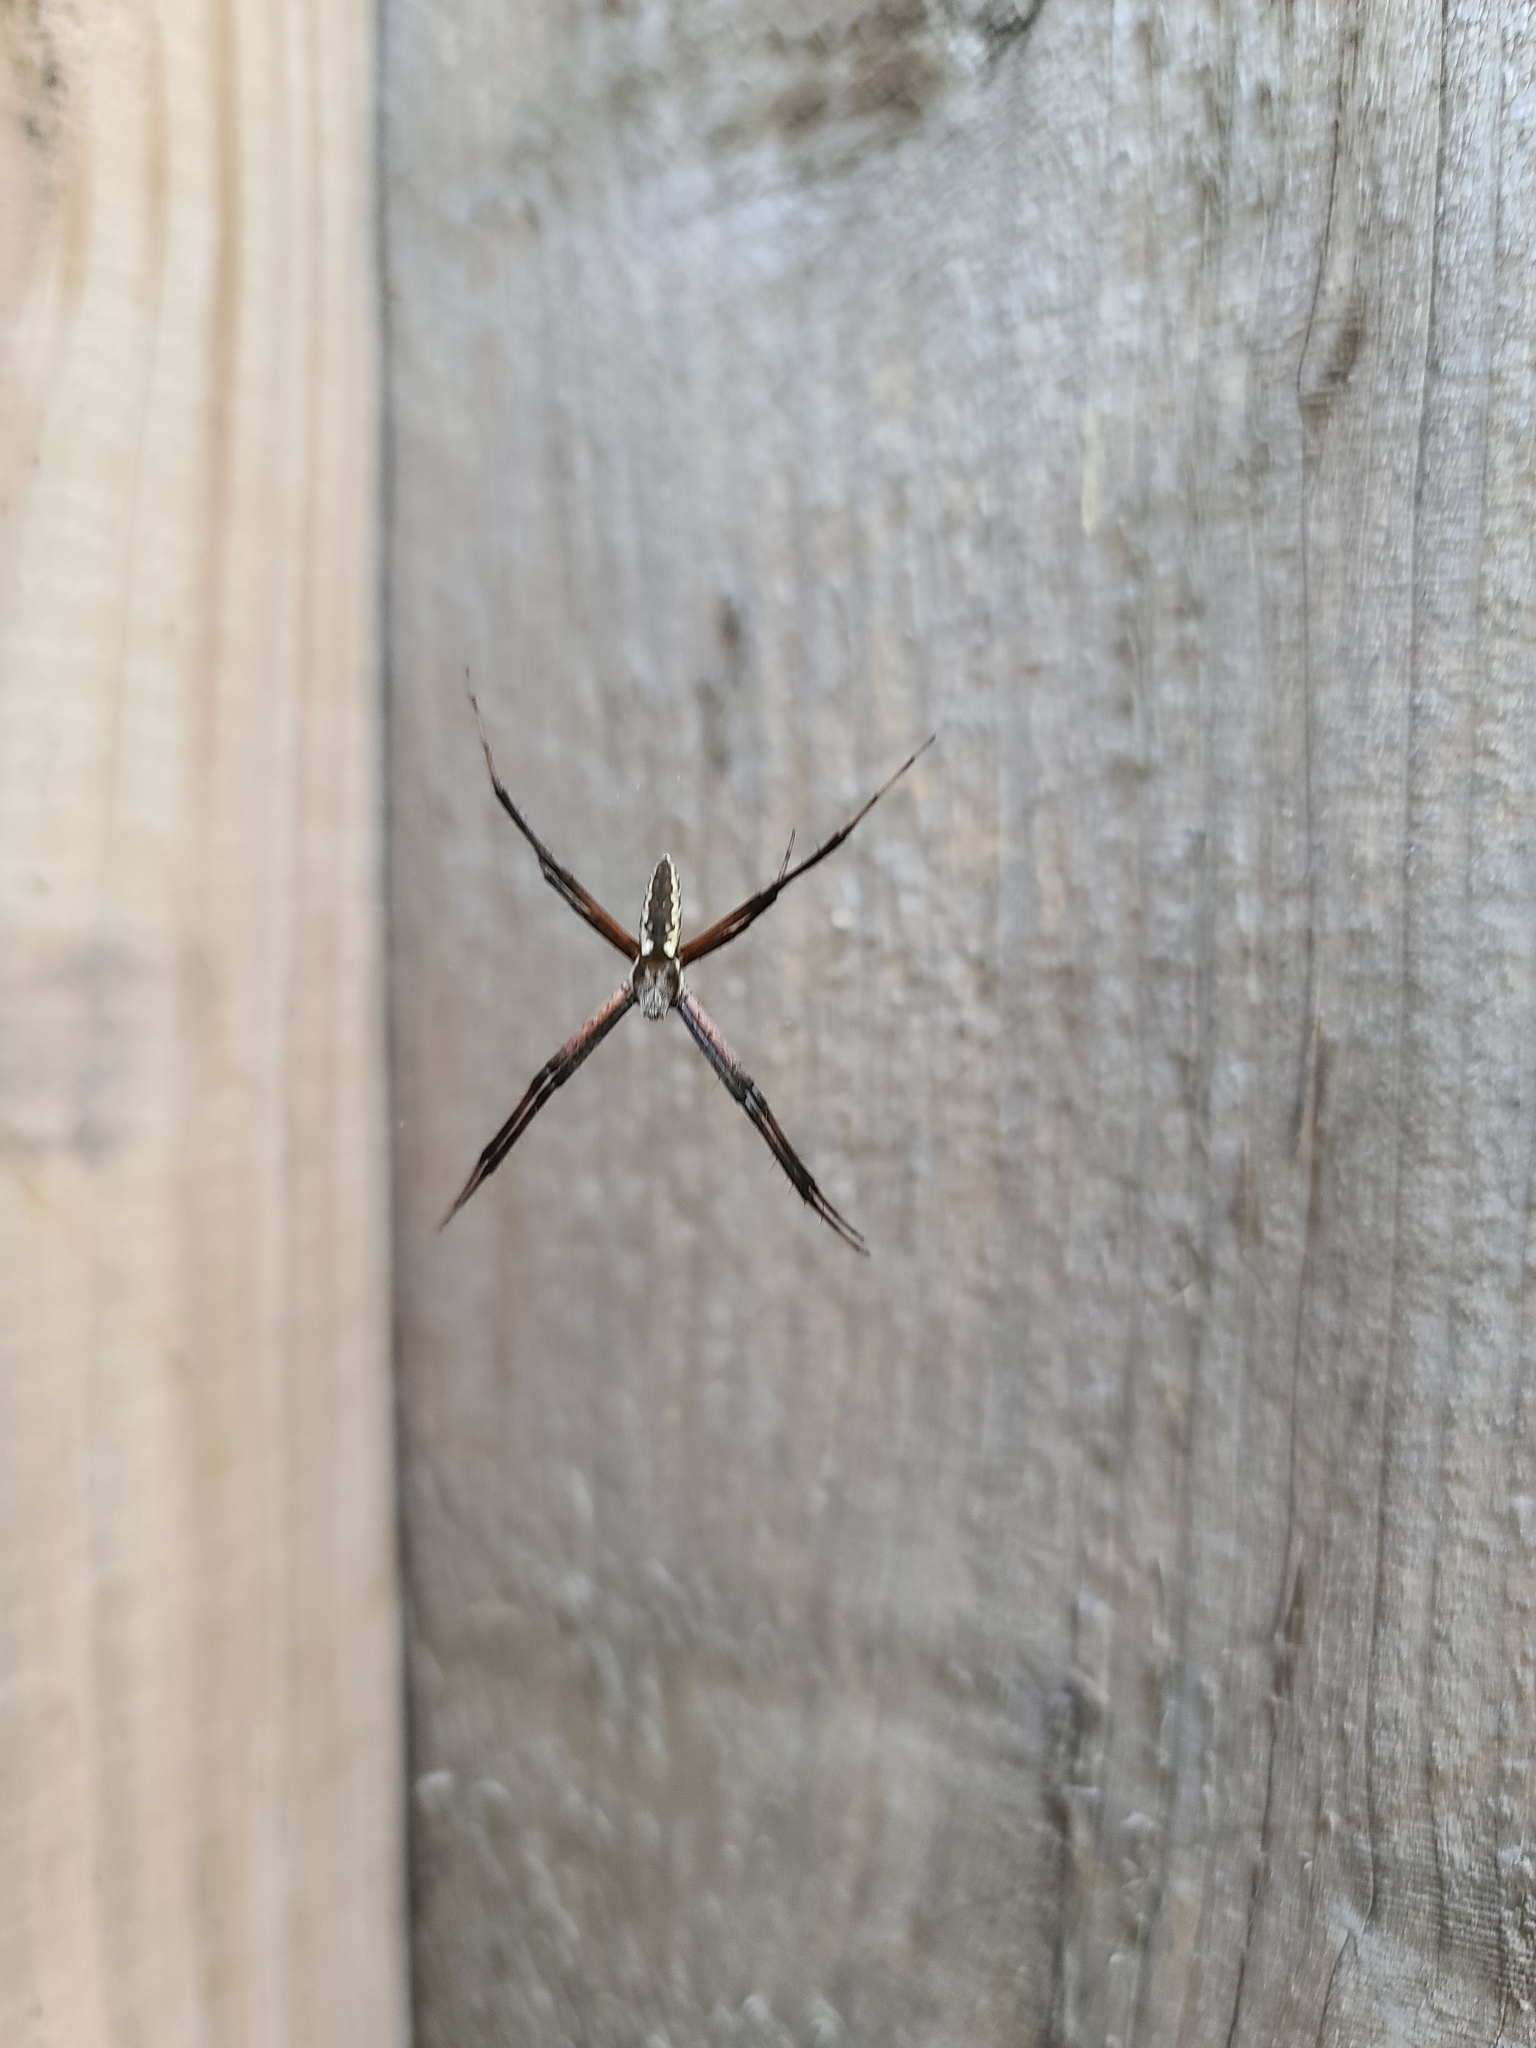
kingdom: Animalia
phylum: Arthropoda
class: Arachnida
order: Araneae
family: Araneidae
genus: Argiope
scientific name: Argiope aurantia
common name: Orb weavers
